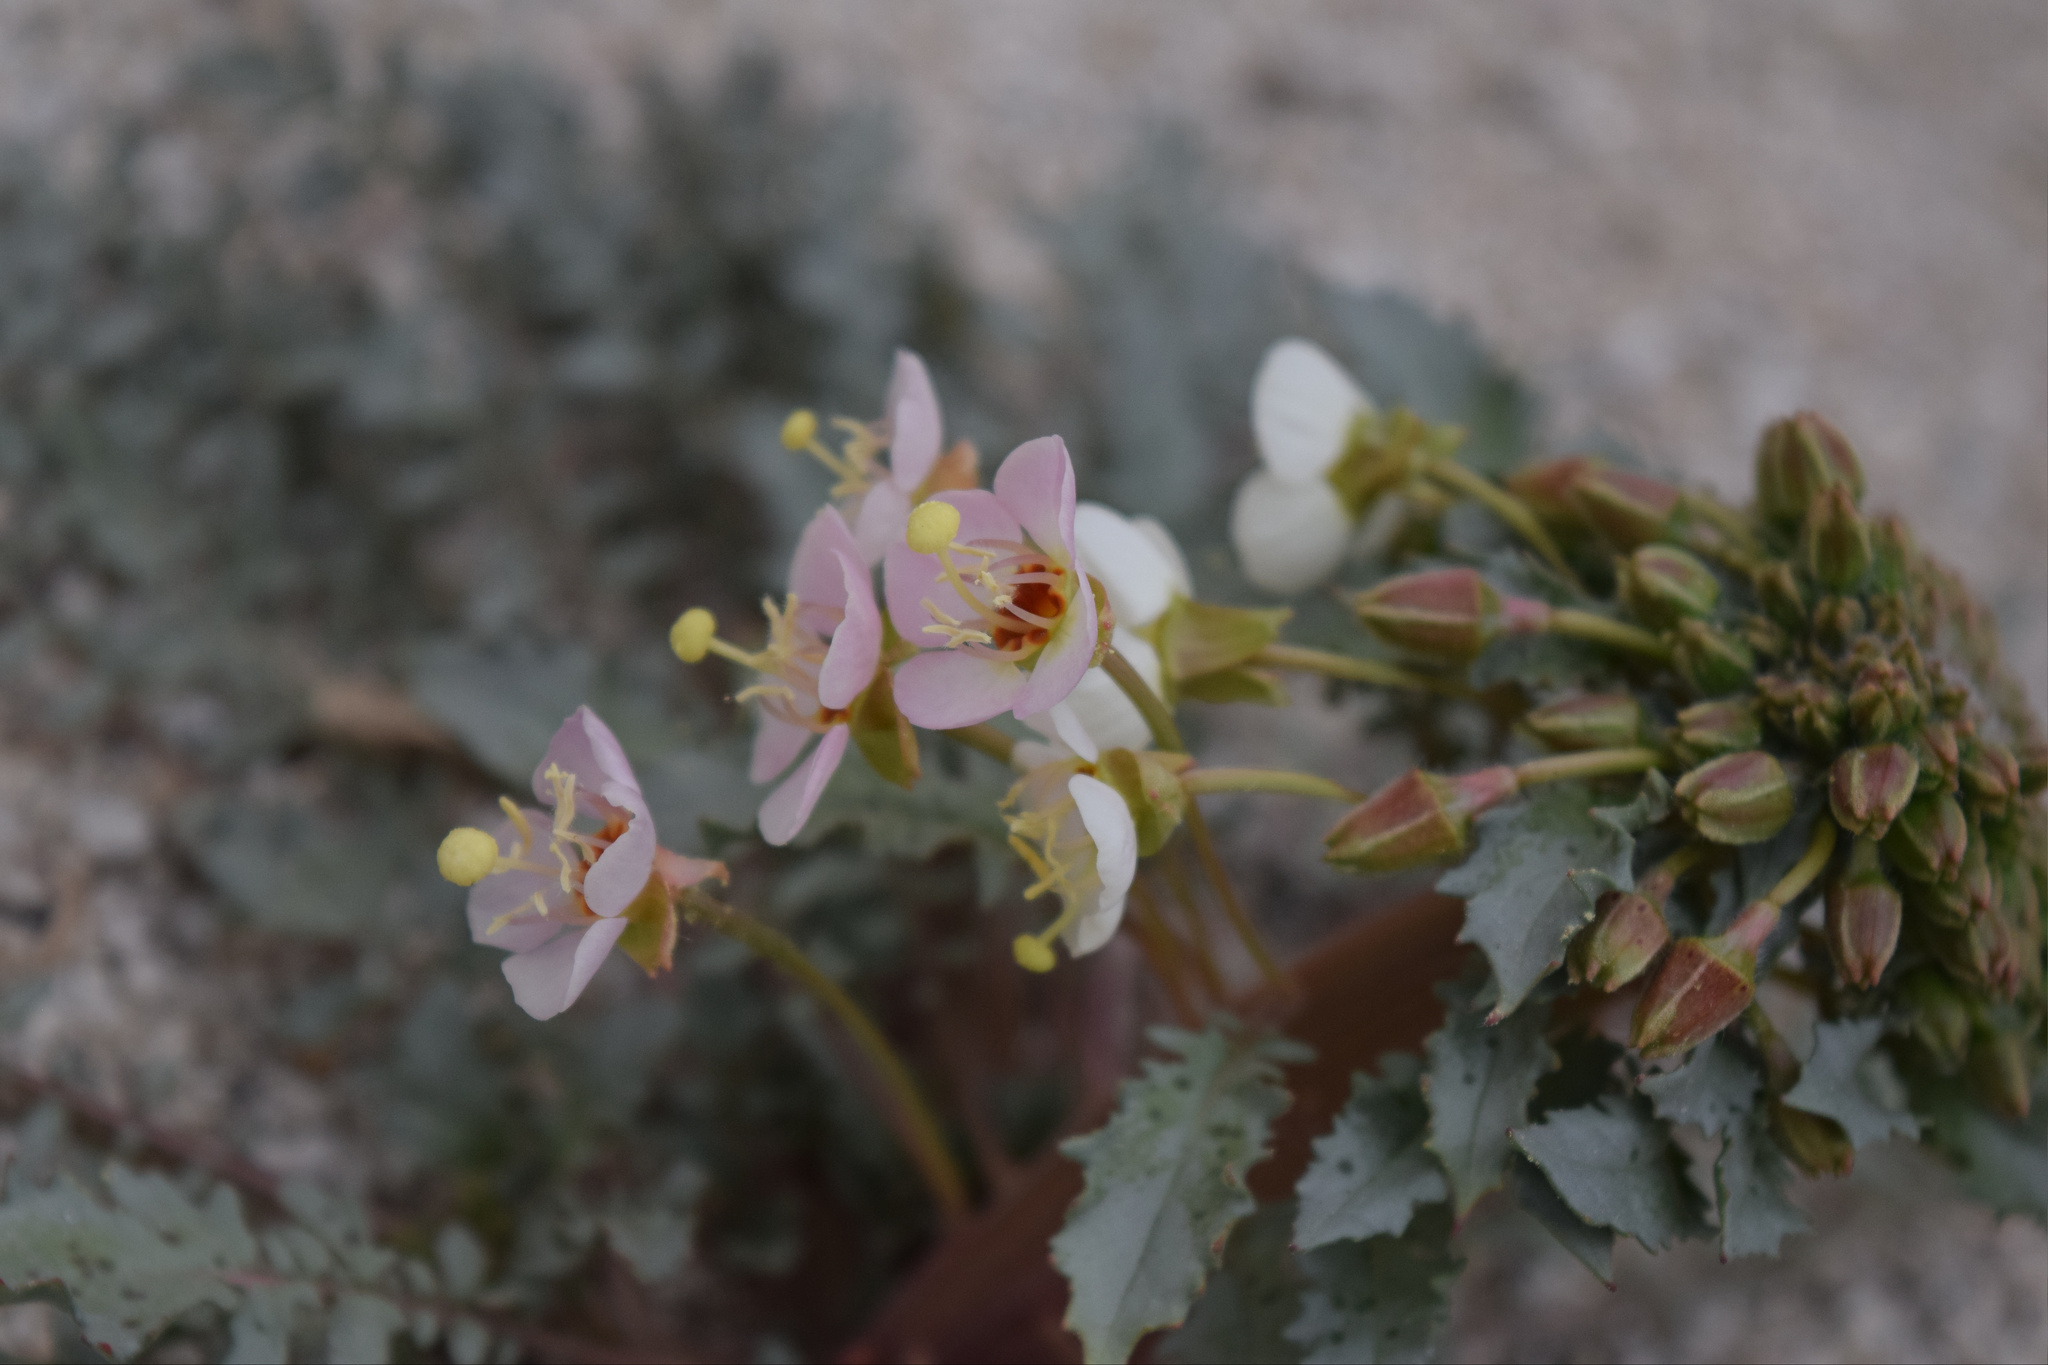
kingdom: Plantae
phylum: Tracheophyta
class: Magnoliopsida
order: Myrtales
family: Onagraceae
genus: Chylismia
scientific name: Chylismia claviformis
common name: Browneyes
